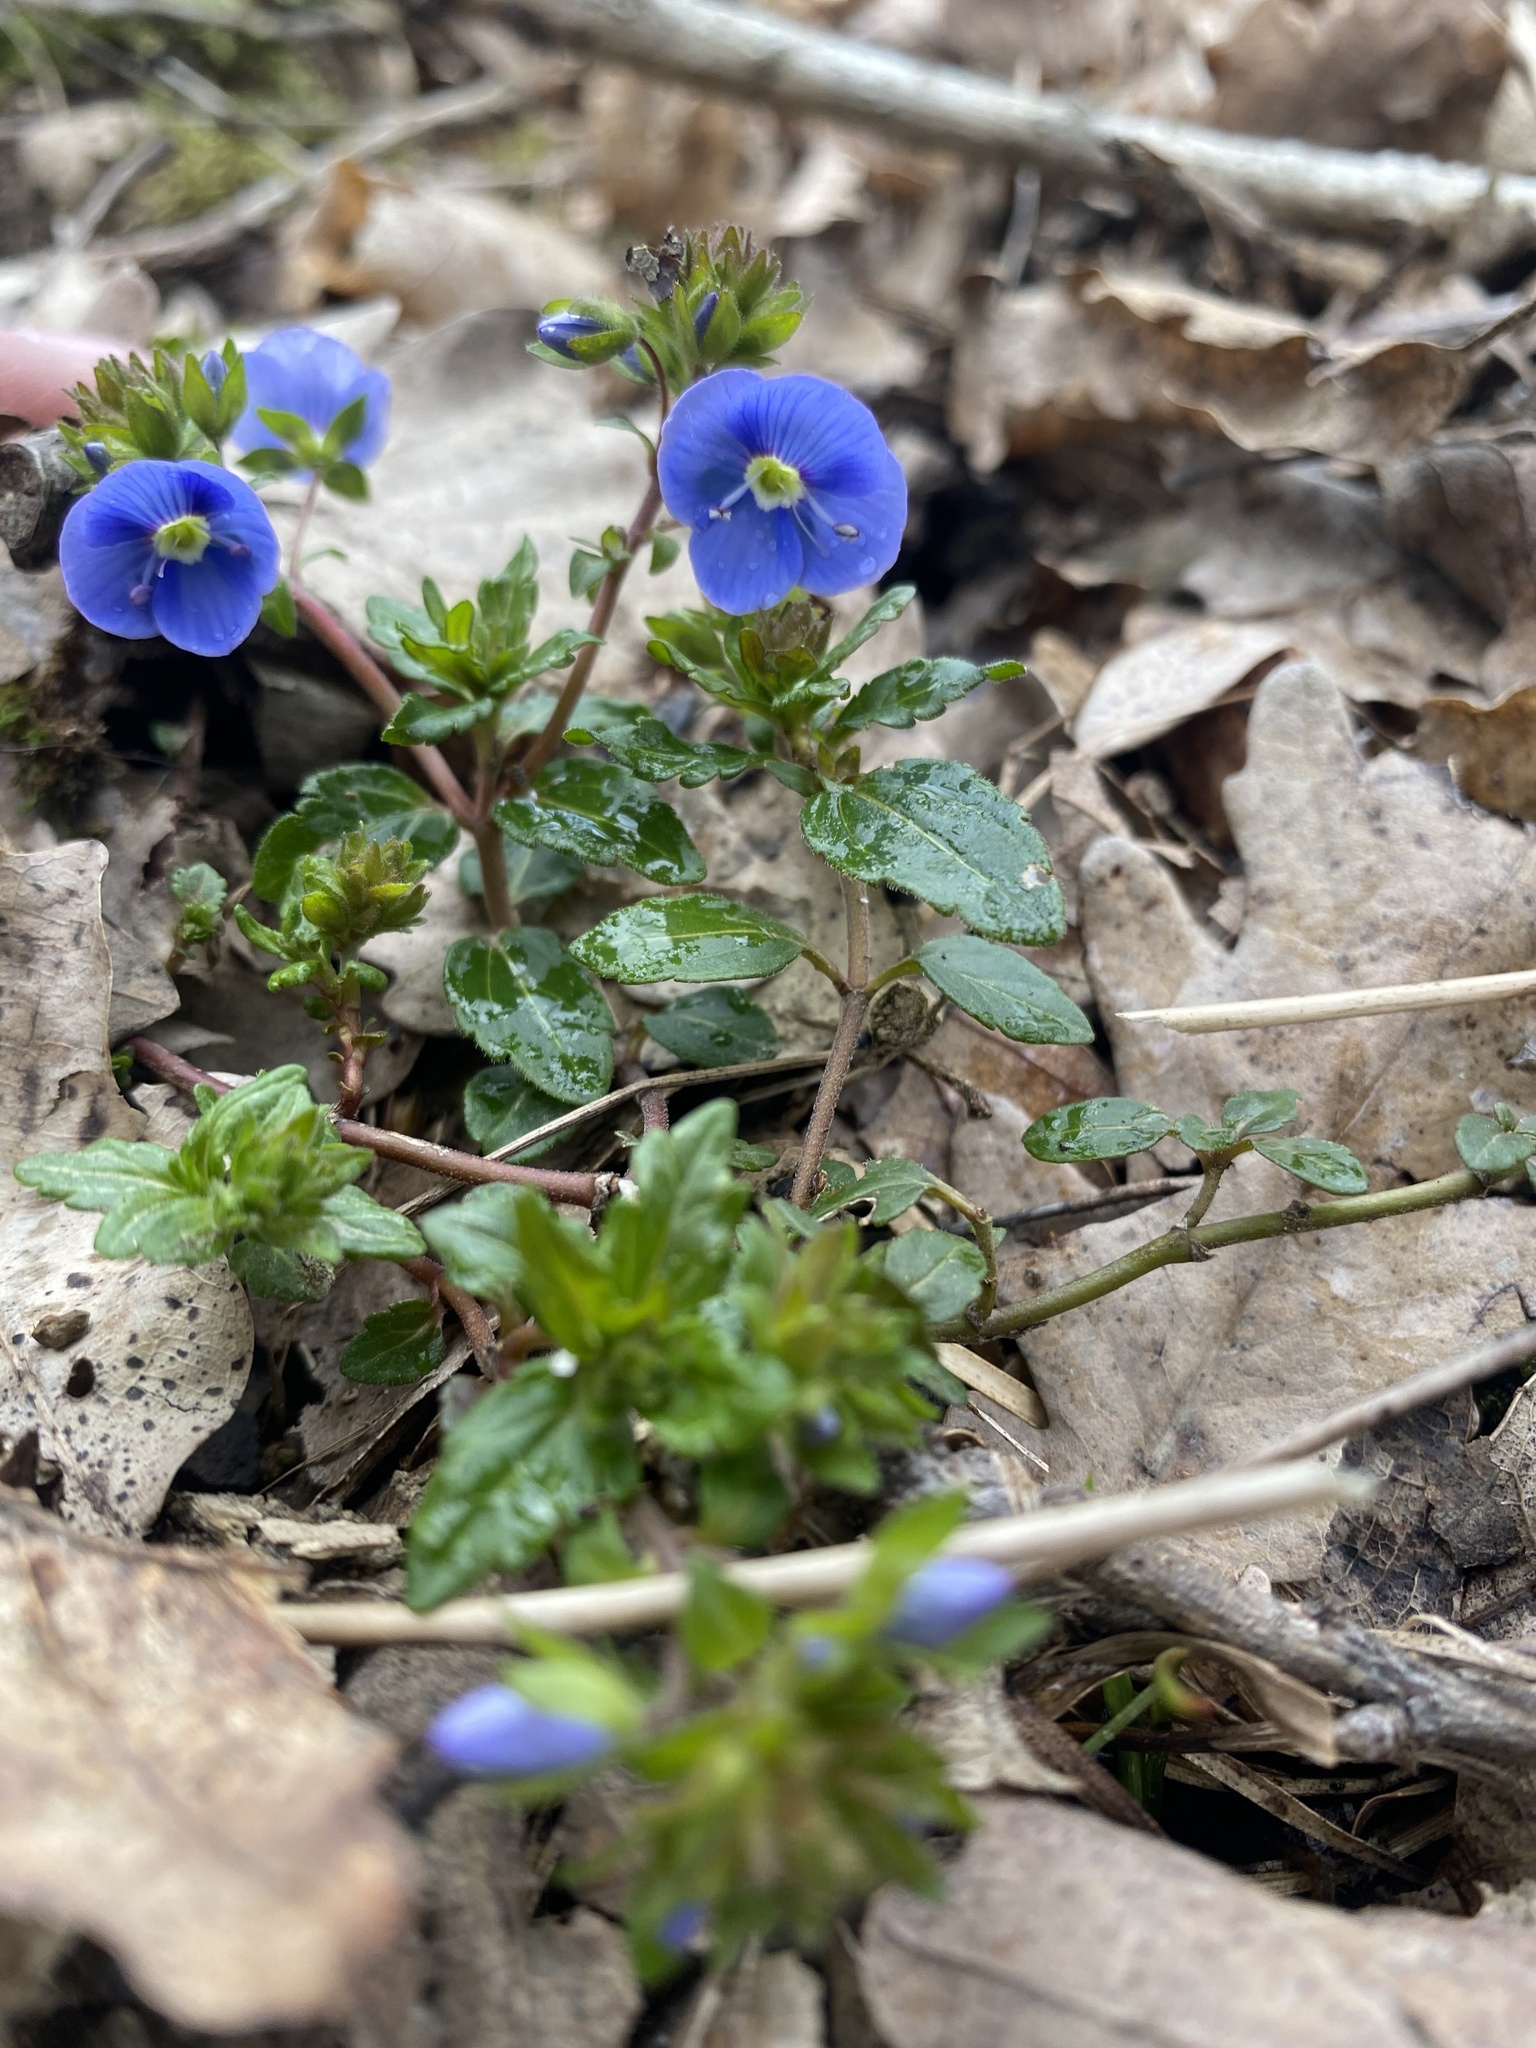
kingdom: Plantae
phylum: Tracheophyta
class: Magnoliopsida
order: Lamiales
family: Plantaginaceae
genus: Veronica
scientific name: Veronica
